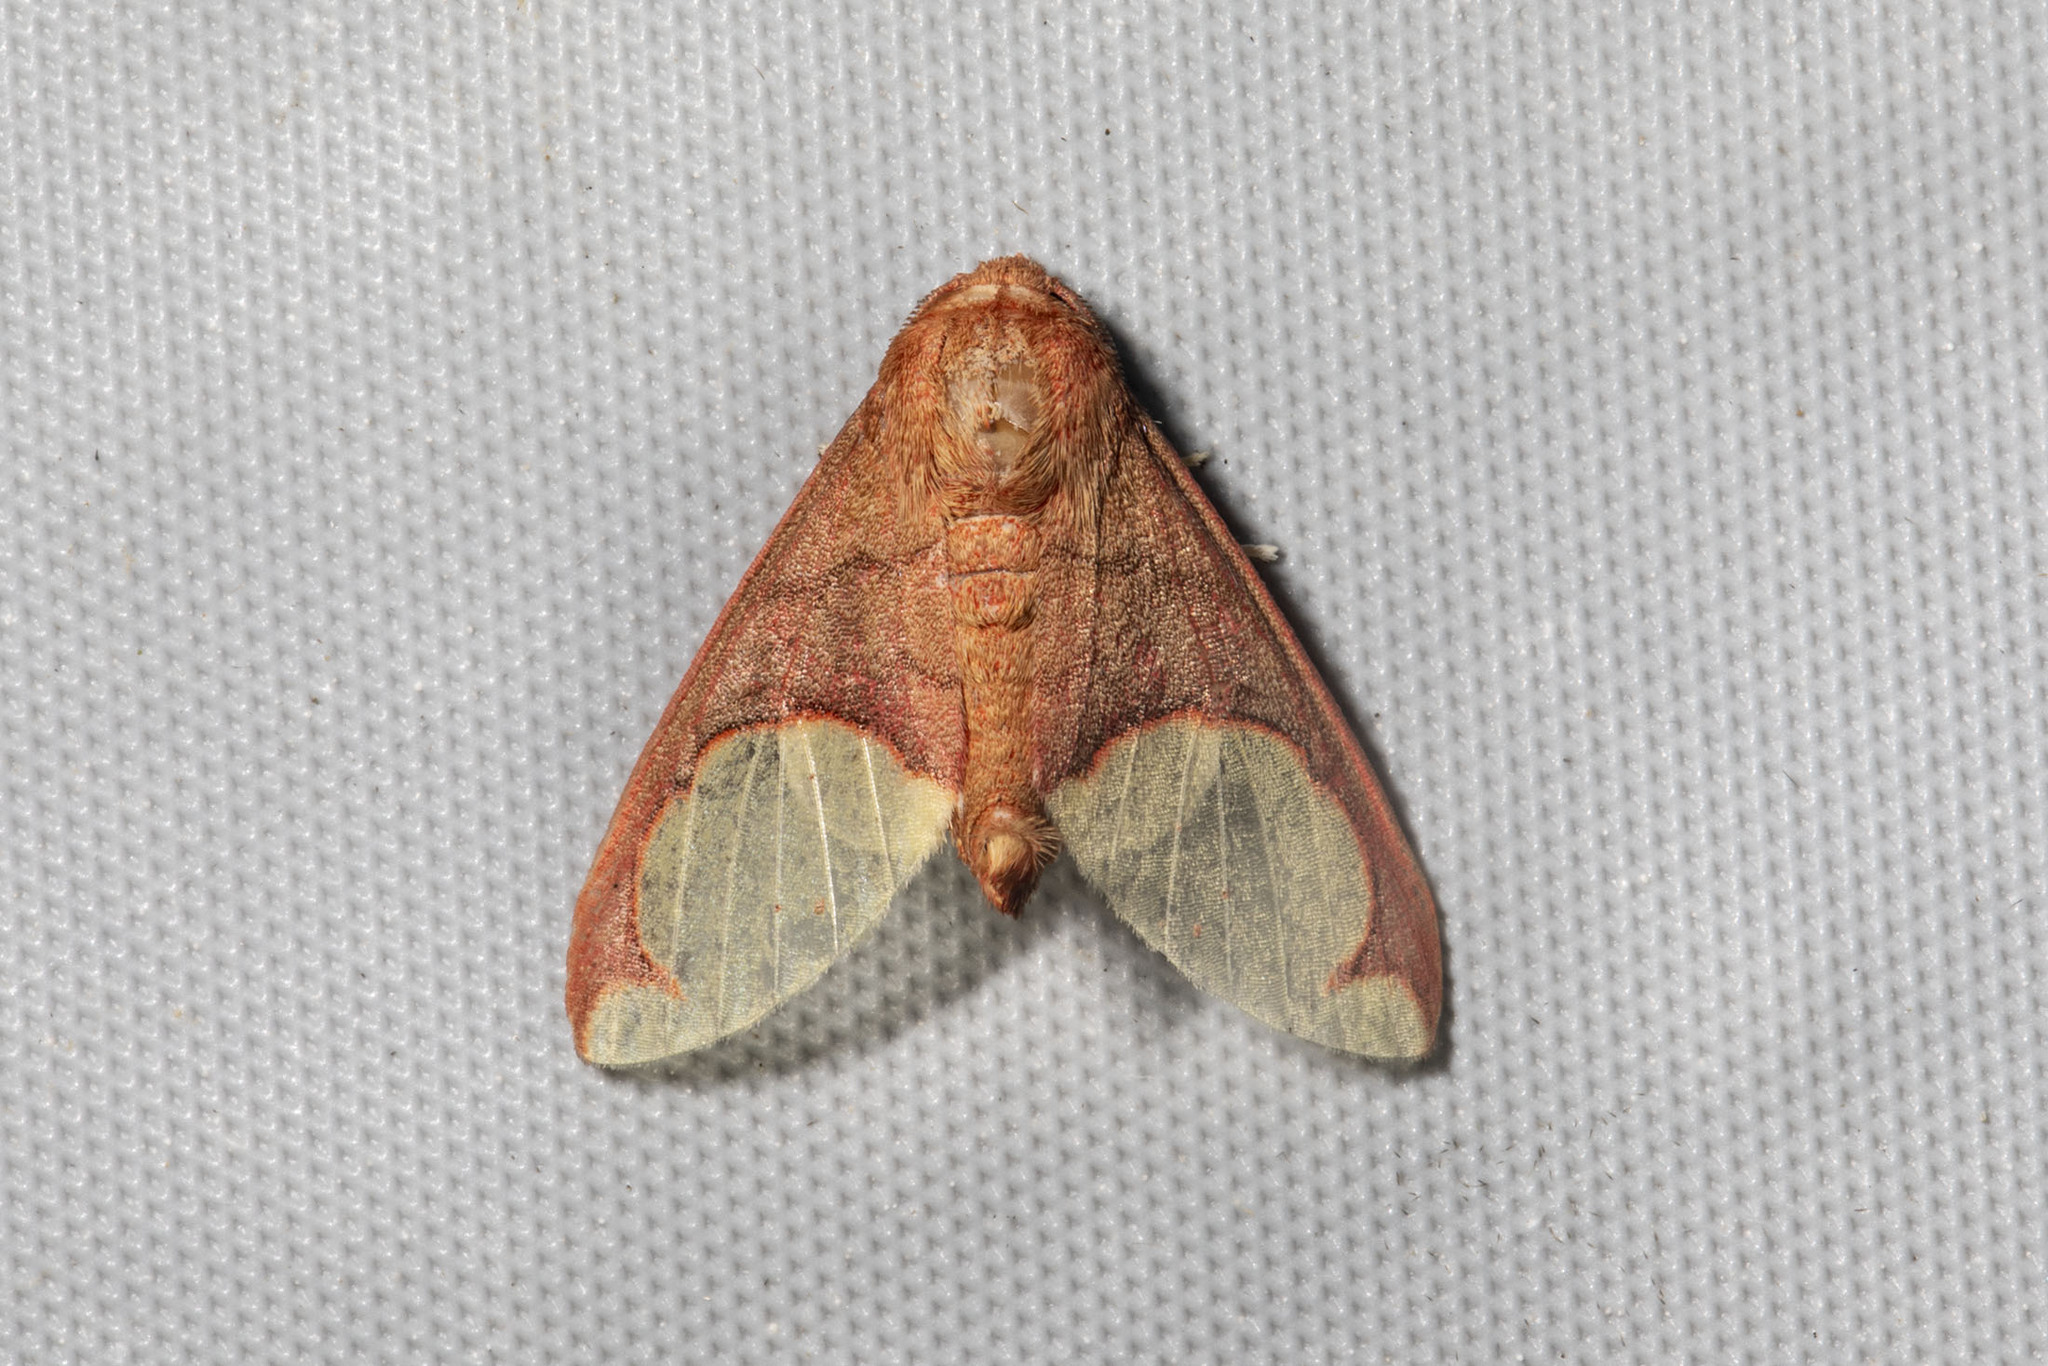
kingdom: Animalia
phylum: Arthropoda
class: Insecta
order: Lepidoptera
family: Erebidae
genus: Pseudepimolis
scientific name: Pseudepimolis incisa
